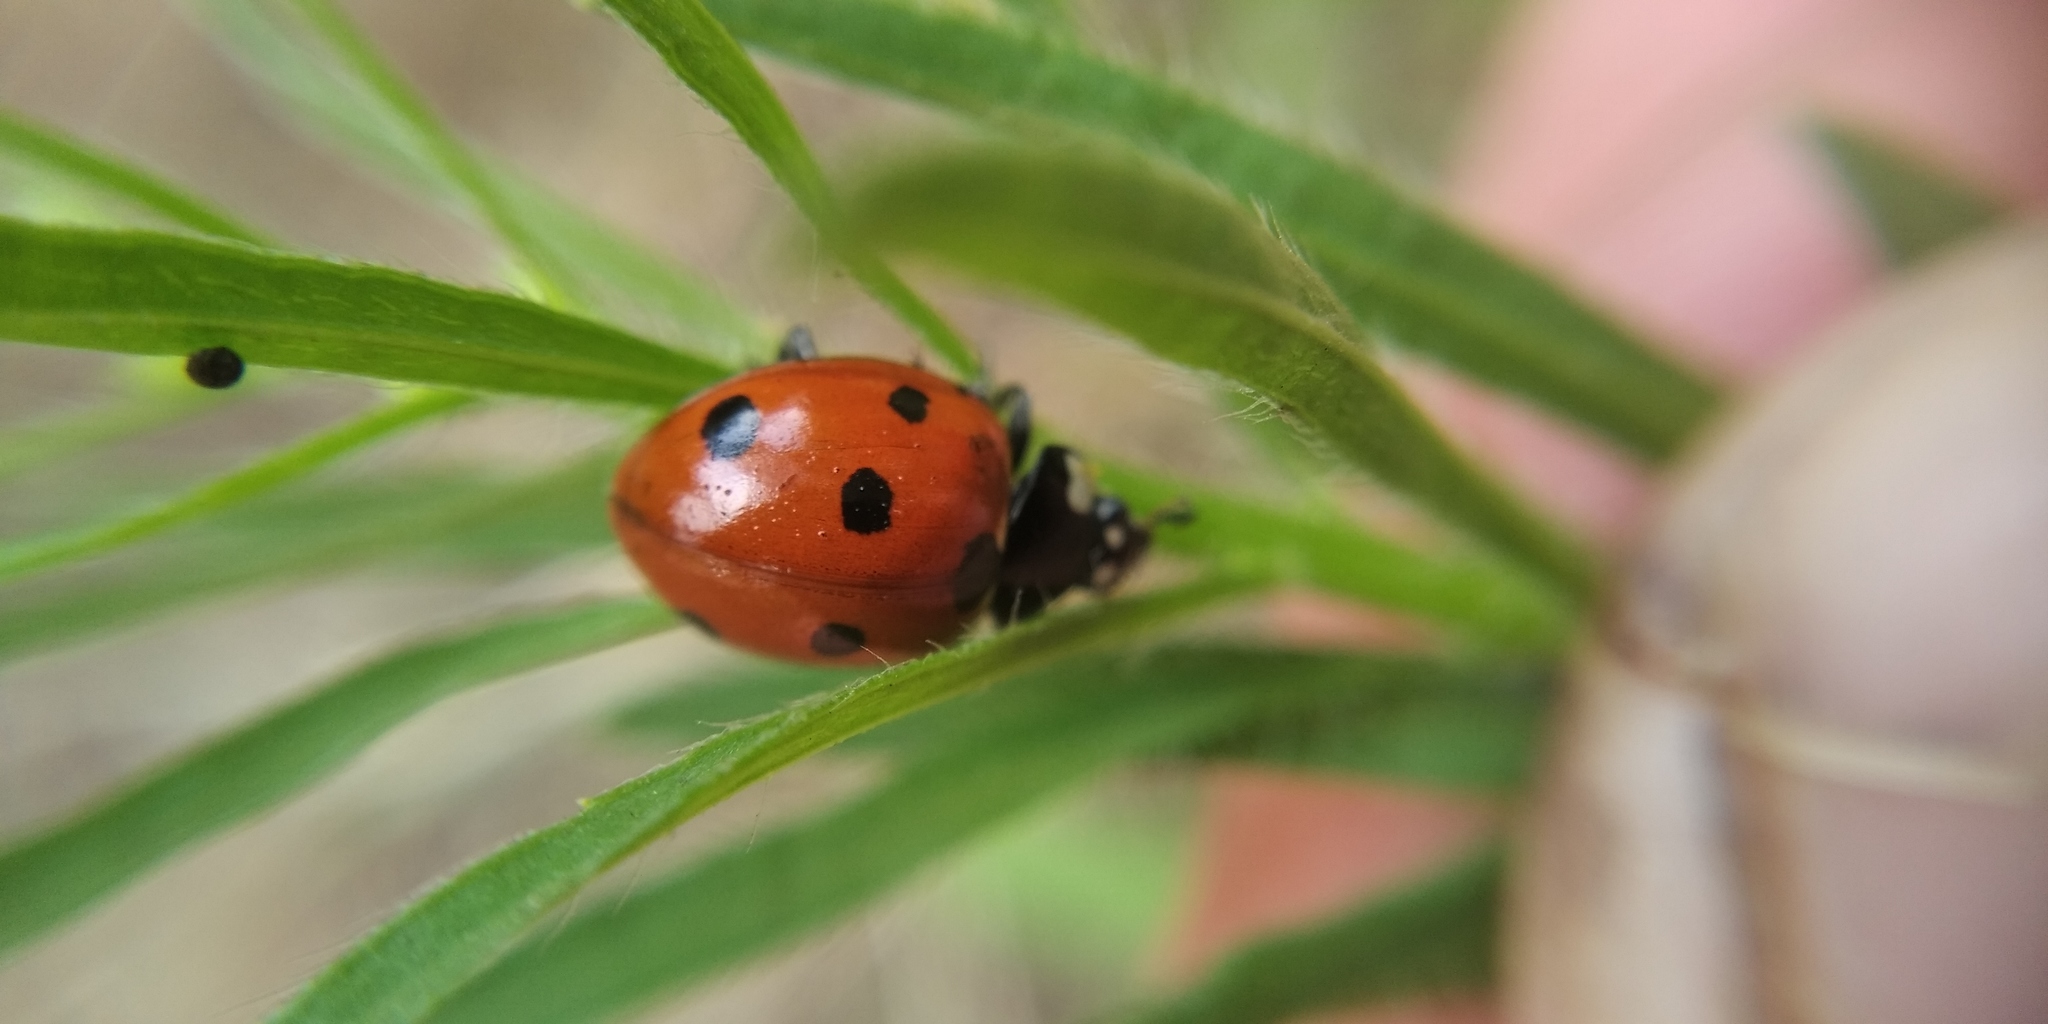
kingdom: Animalia
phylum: Arthropoda
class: Insecta
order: Coleoptera
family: Coccinellidae
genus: Coccinella
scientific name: Coccinella septempunctata
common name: Sevenspotted lady beetle
